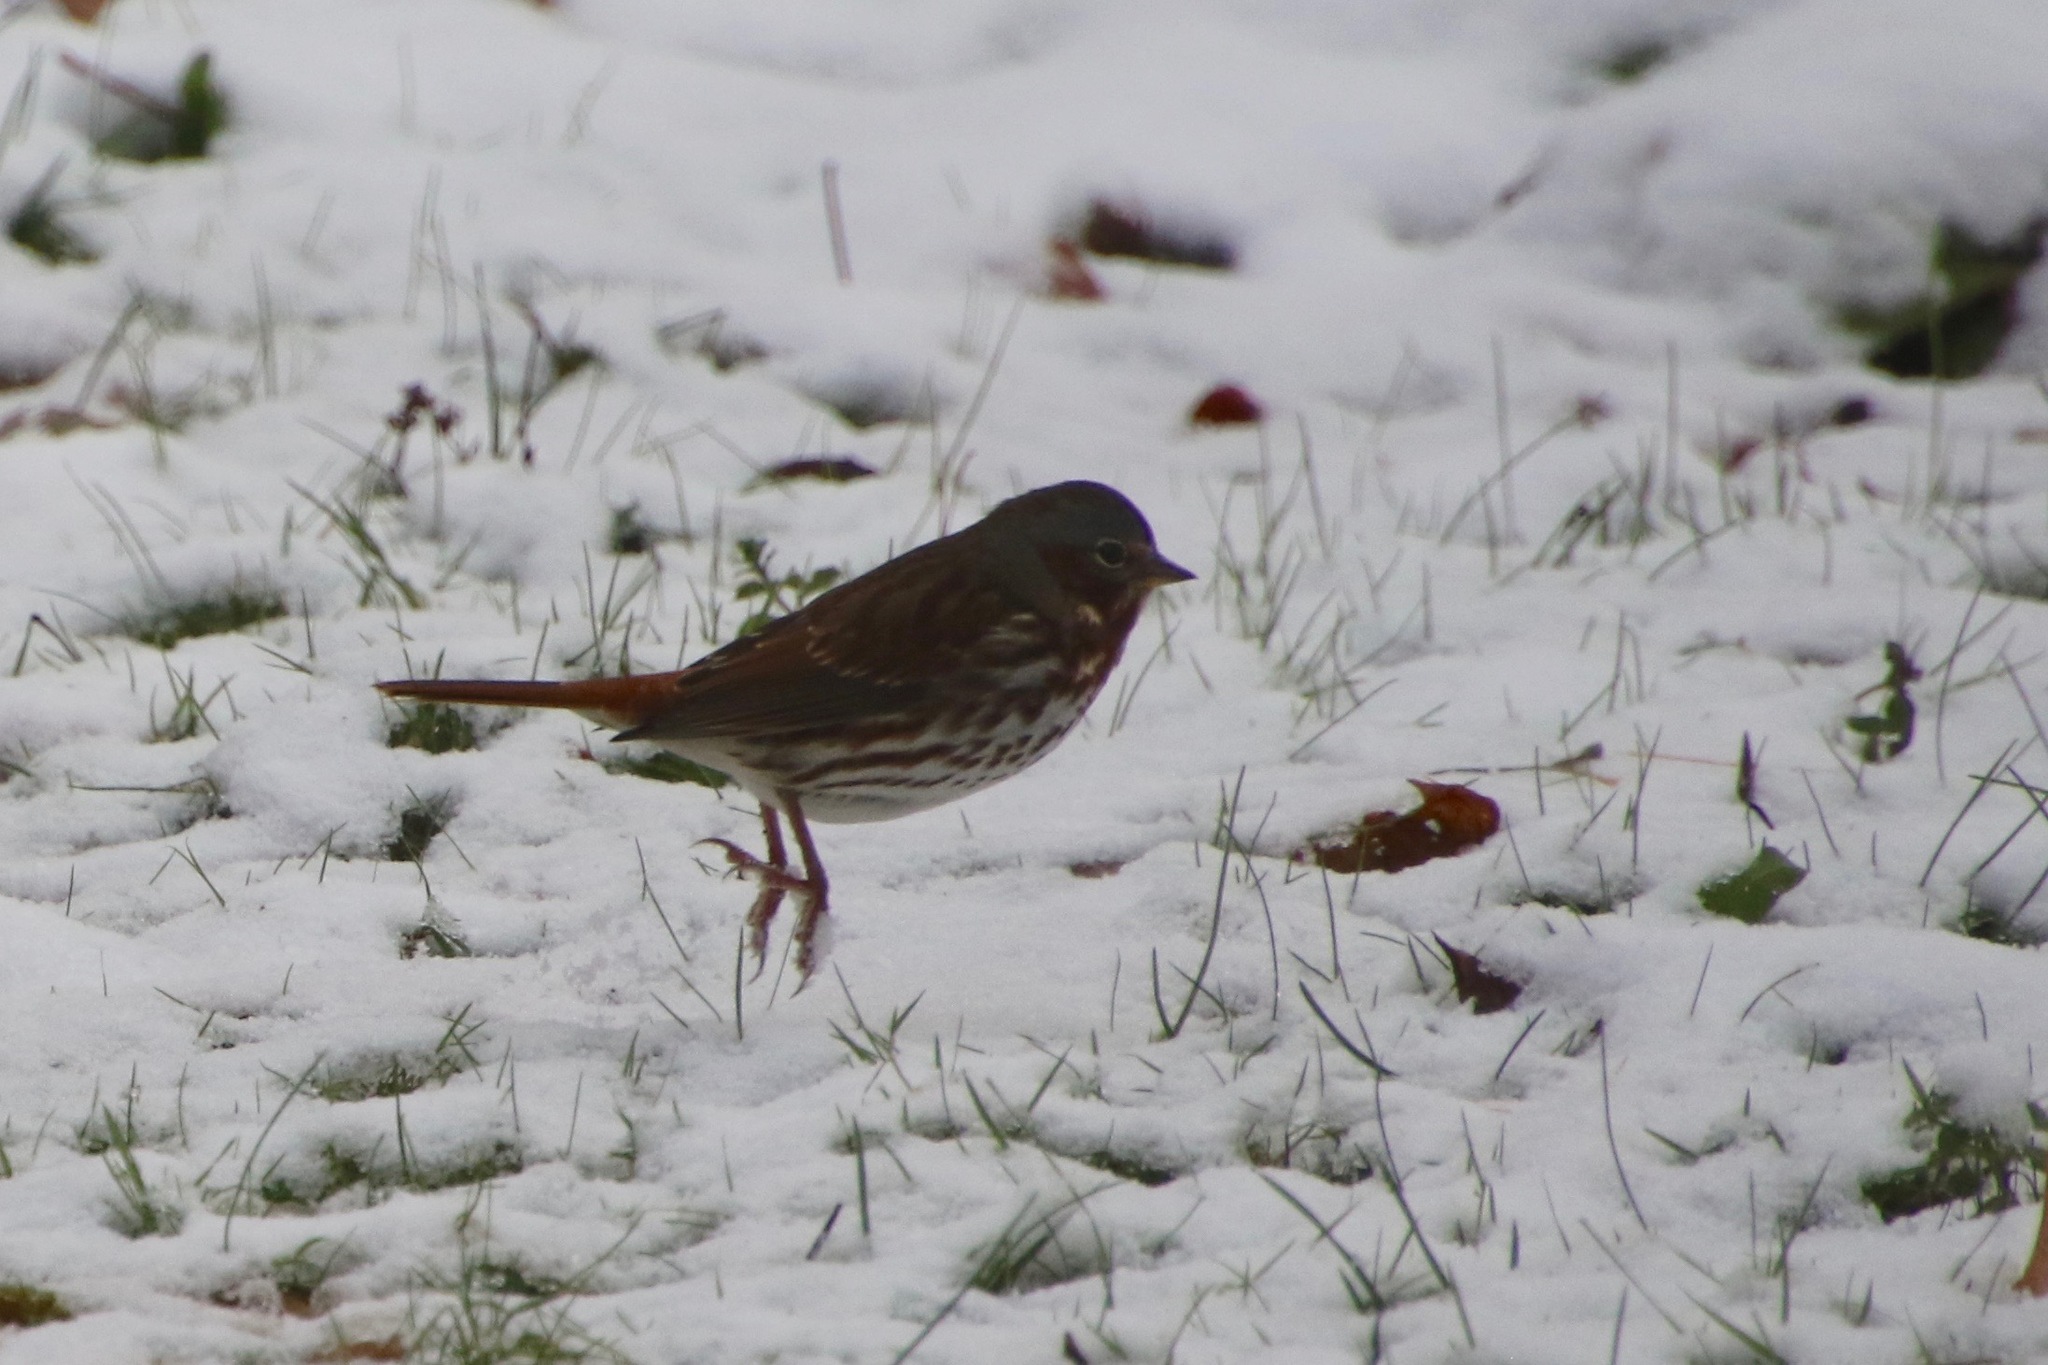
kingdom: Animalia
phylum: Chordata
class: Aves
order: Passeriformes
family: Passerellidae
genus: Passerella
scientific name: Passerella iliaca
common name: Fox sparrow
